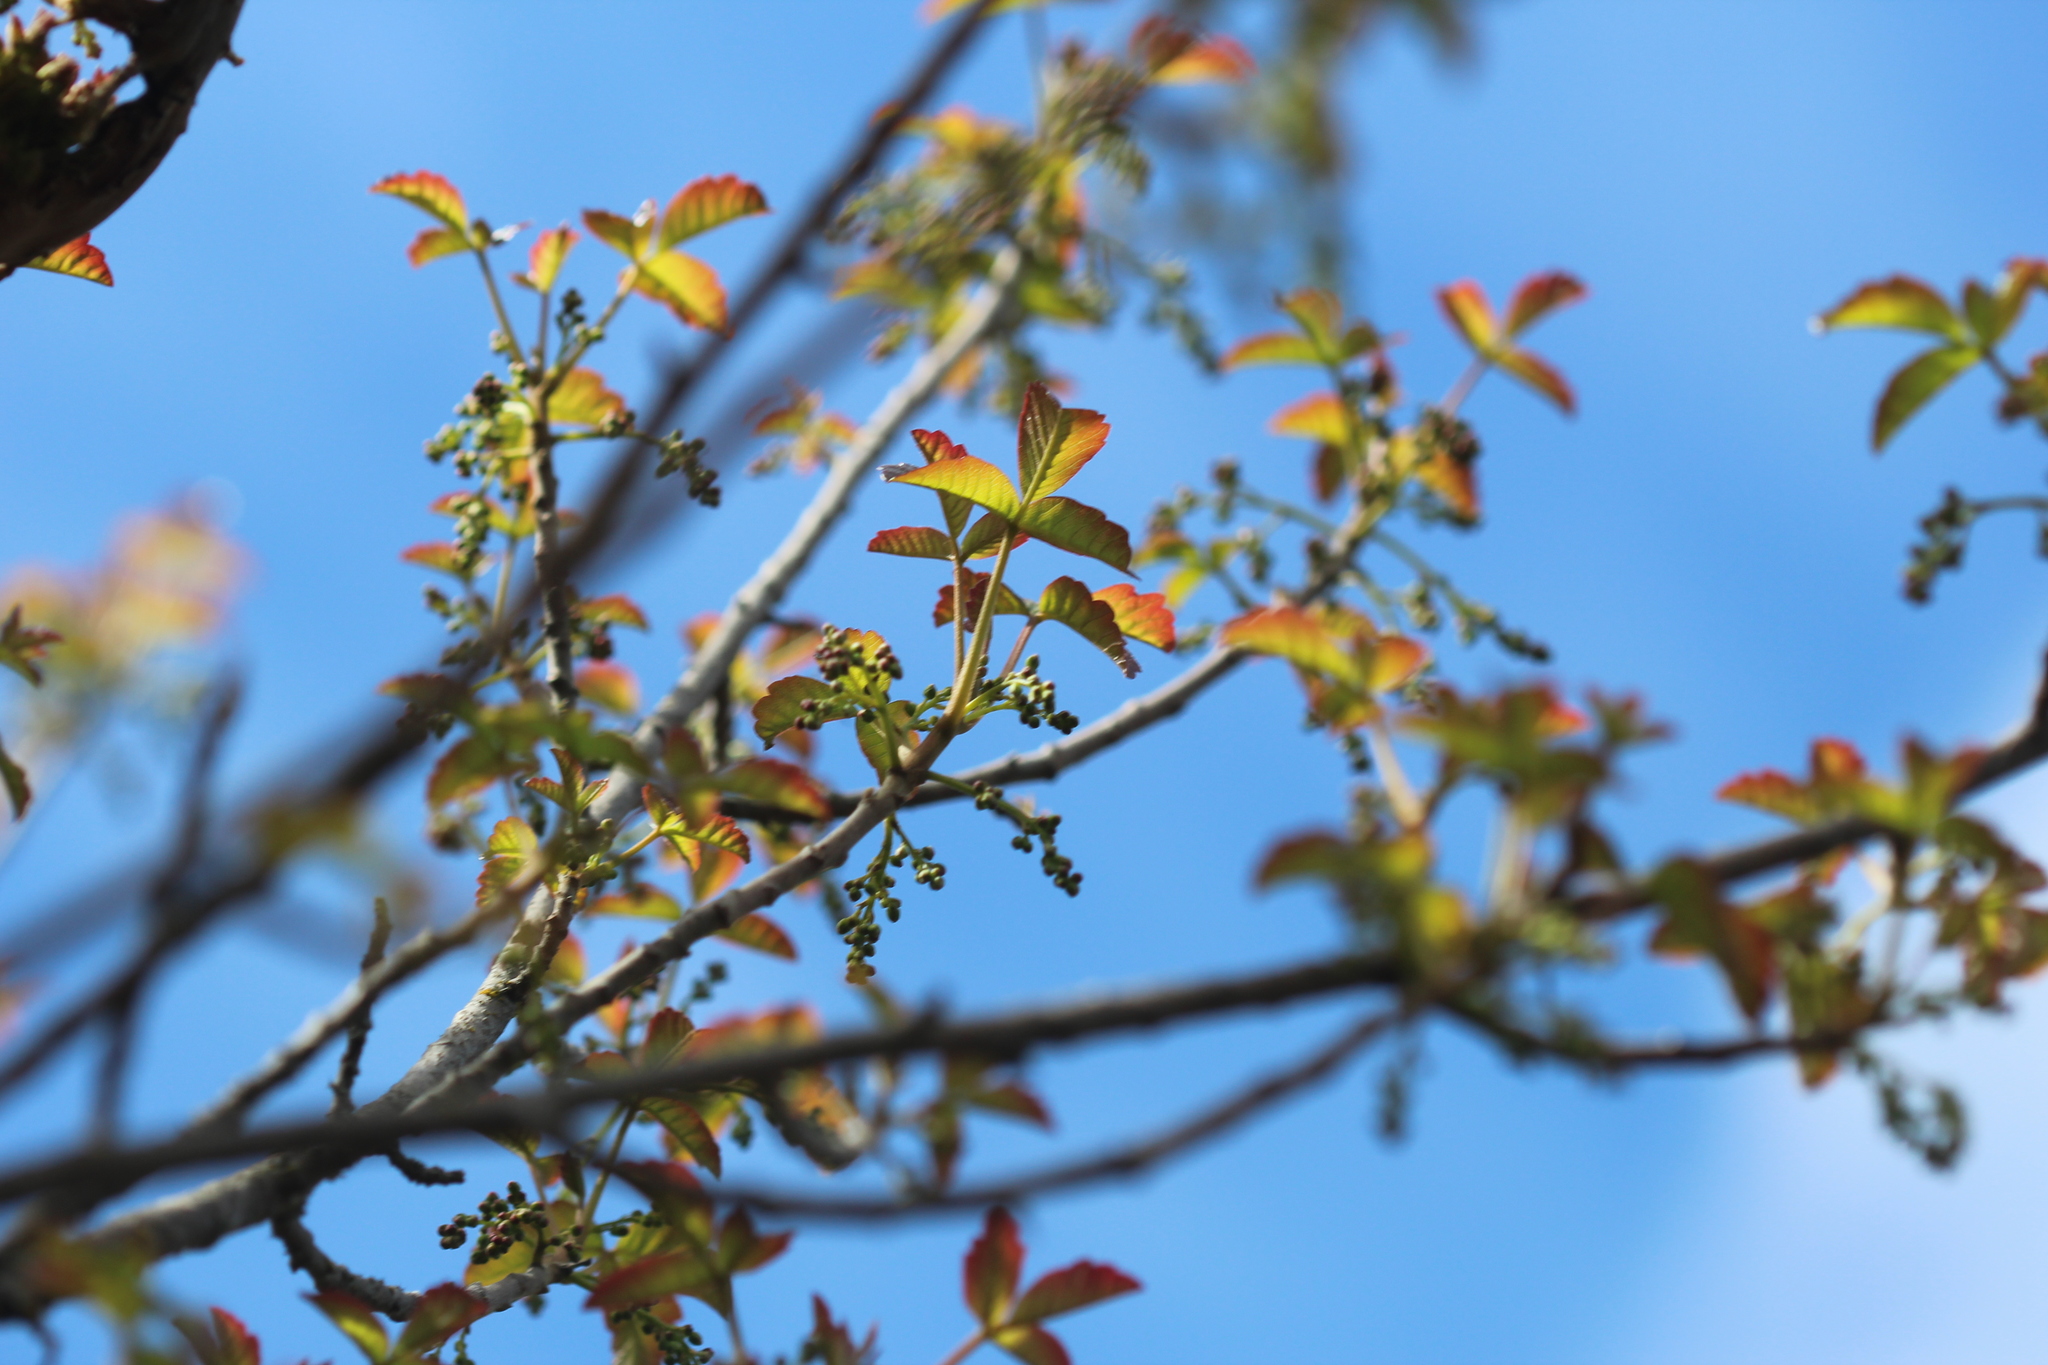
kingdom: Plantae
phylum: Tracheophyta
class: Magnoliopsida
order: Sapindales
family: Anacardiaceae
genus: Toxicodendron
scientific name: Toxicodendron diversilobum
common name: Pacific poison-oak
